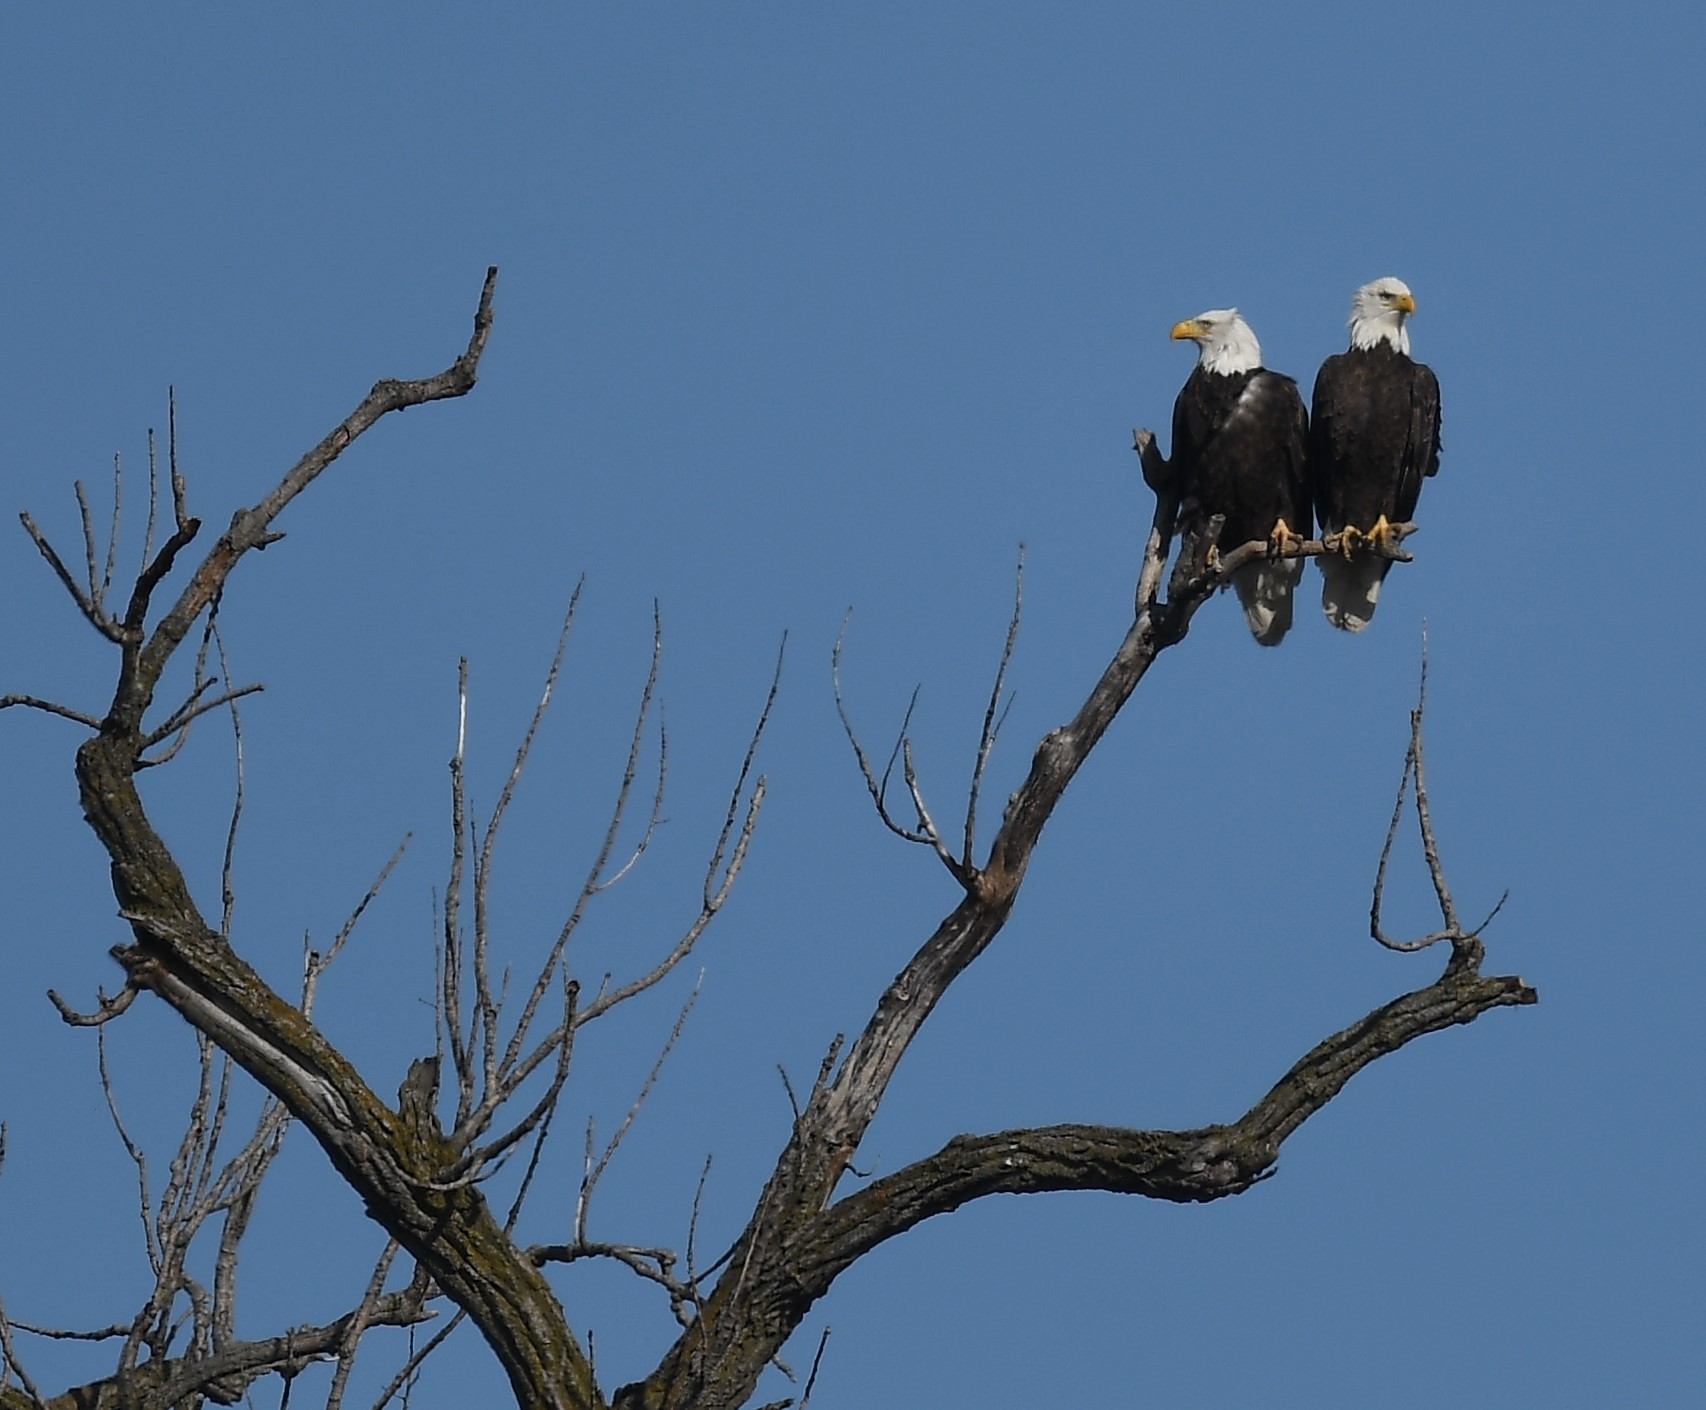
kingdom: Animalia
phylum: Chordata
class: Aves
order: Accipitriformes
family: Accipitridae
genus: Haliaeetus
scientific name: Haliaeetus leucocephalus
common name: Bald eagle
